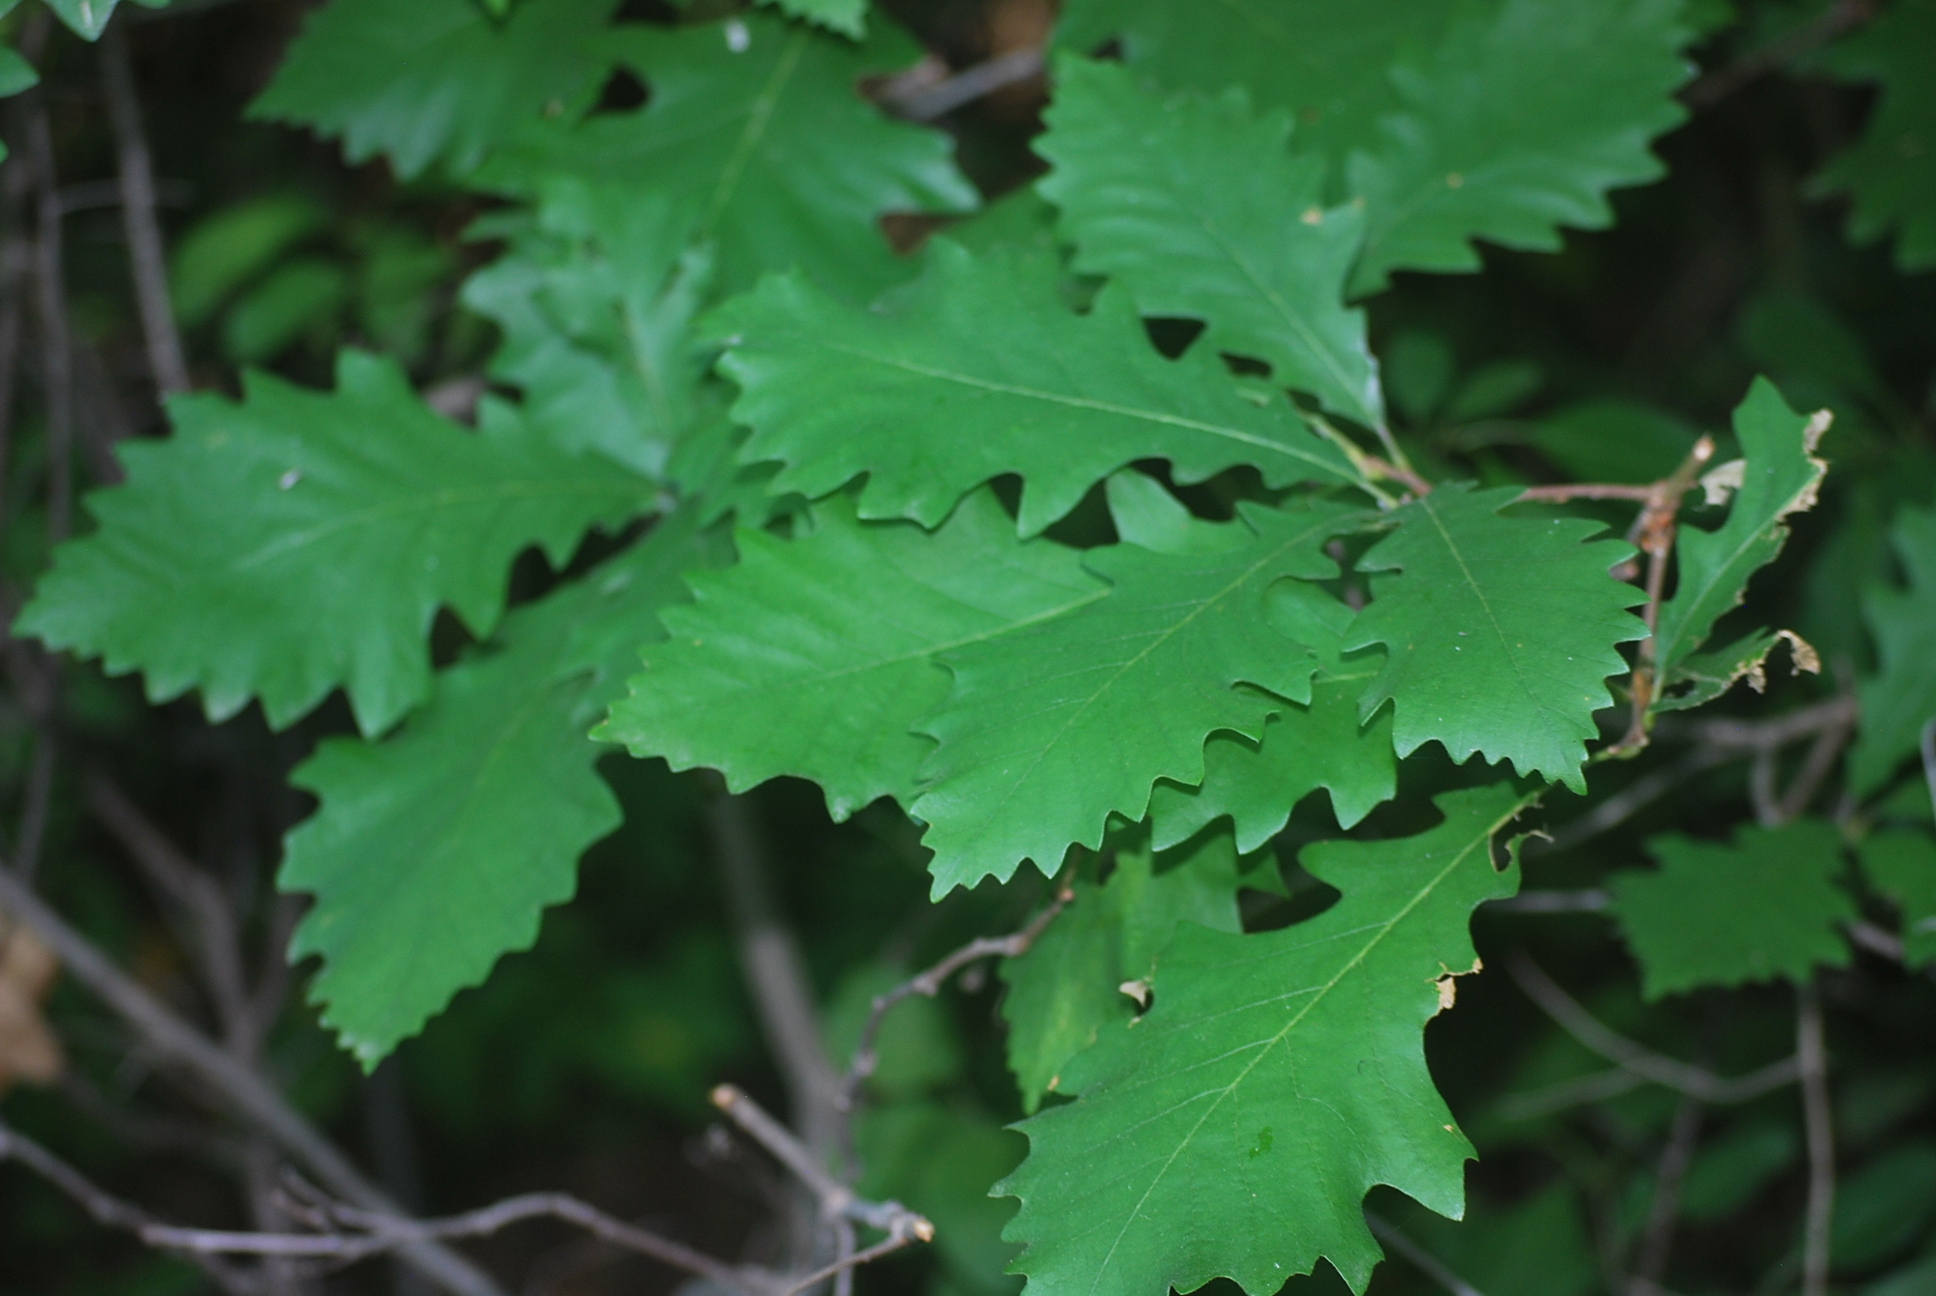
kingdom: Plantae
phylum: Tracheophyta
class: Magnoliopsida
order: Fagales
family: Fagaceae
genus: Quercus
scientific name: Quercus macrocarpa
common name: Bur oak
